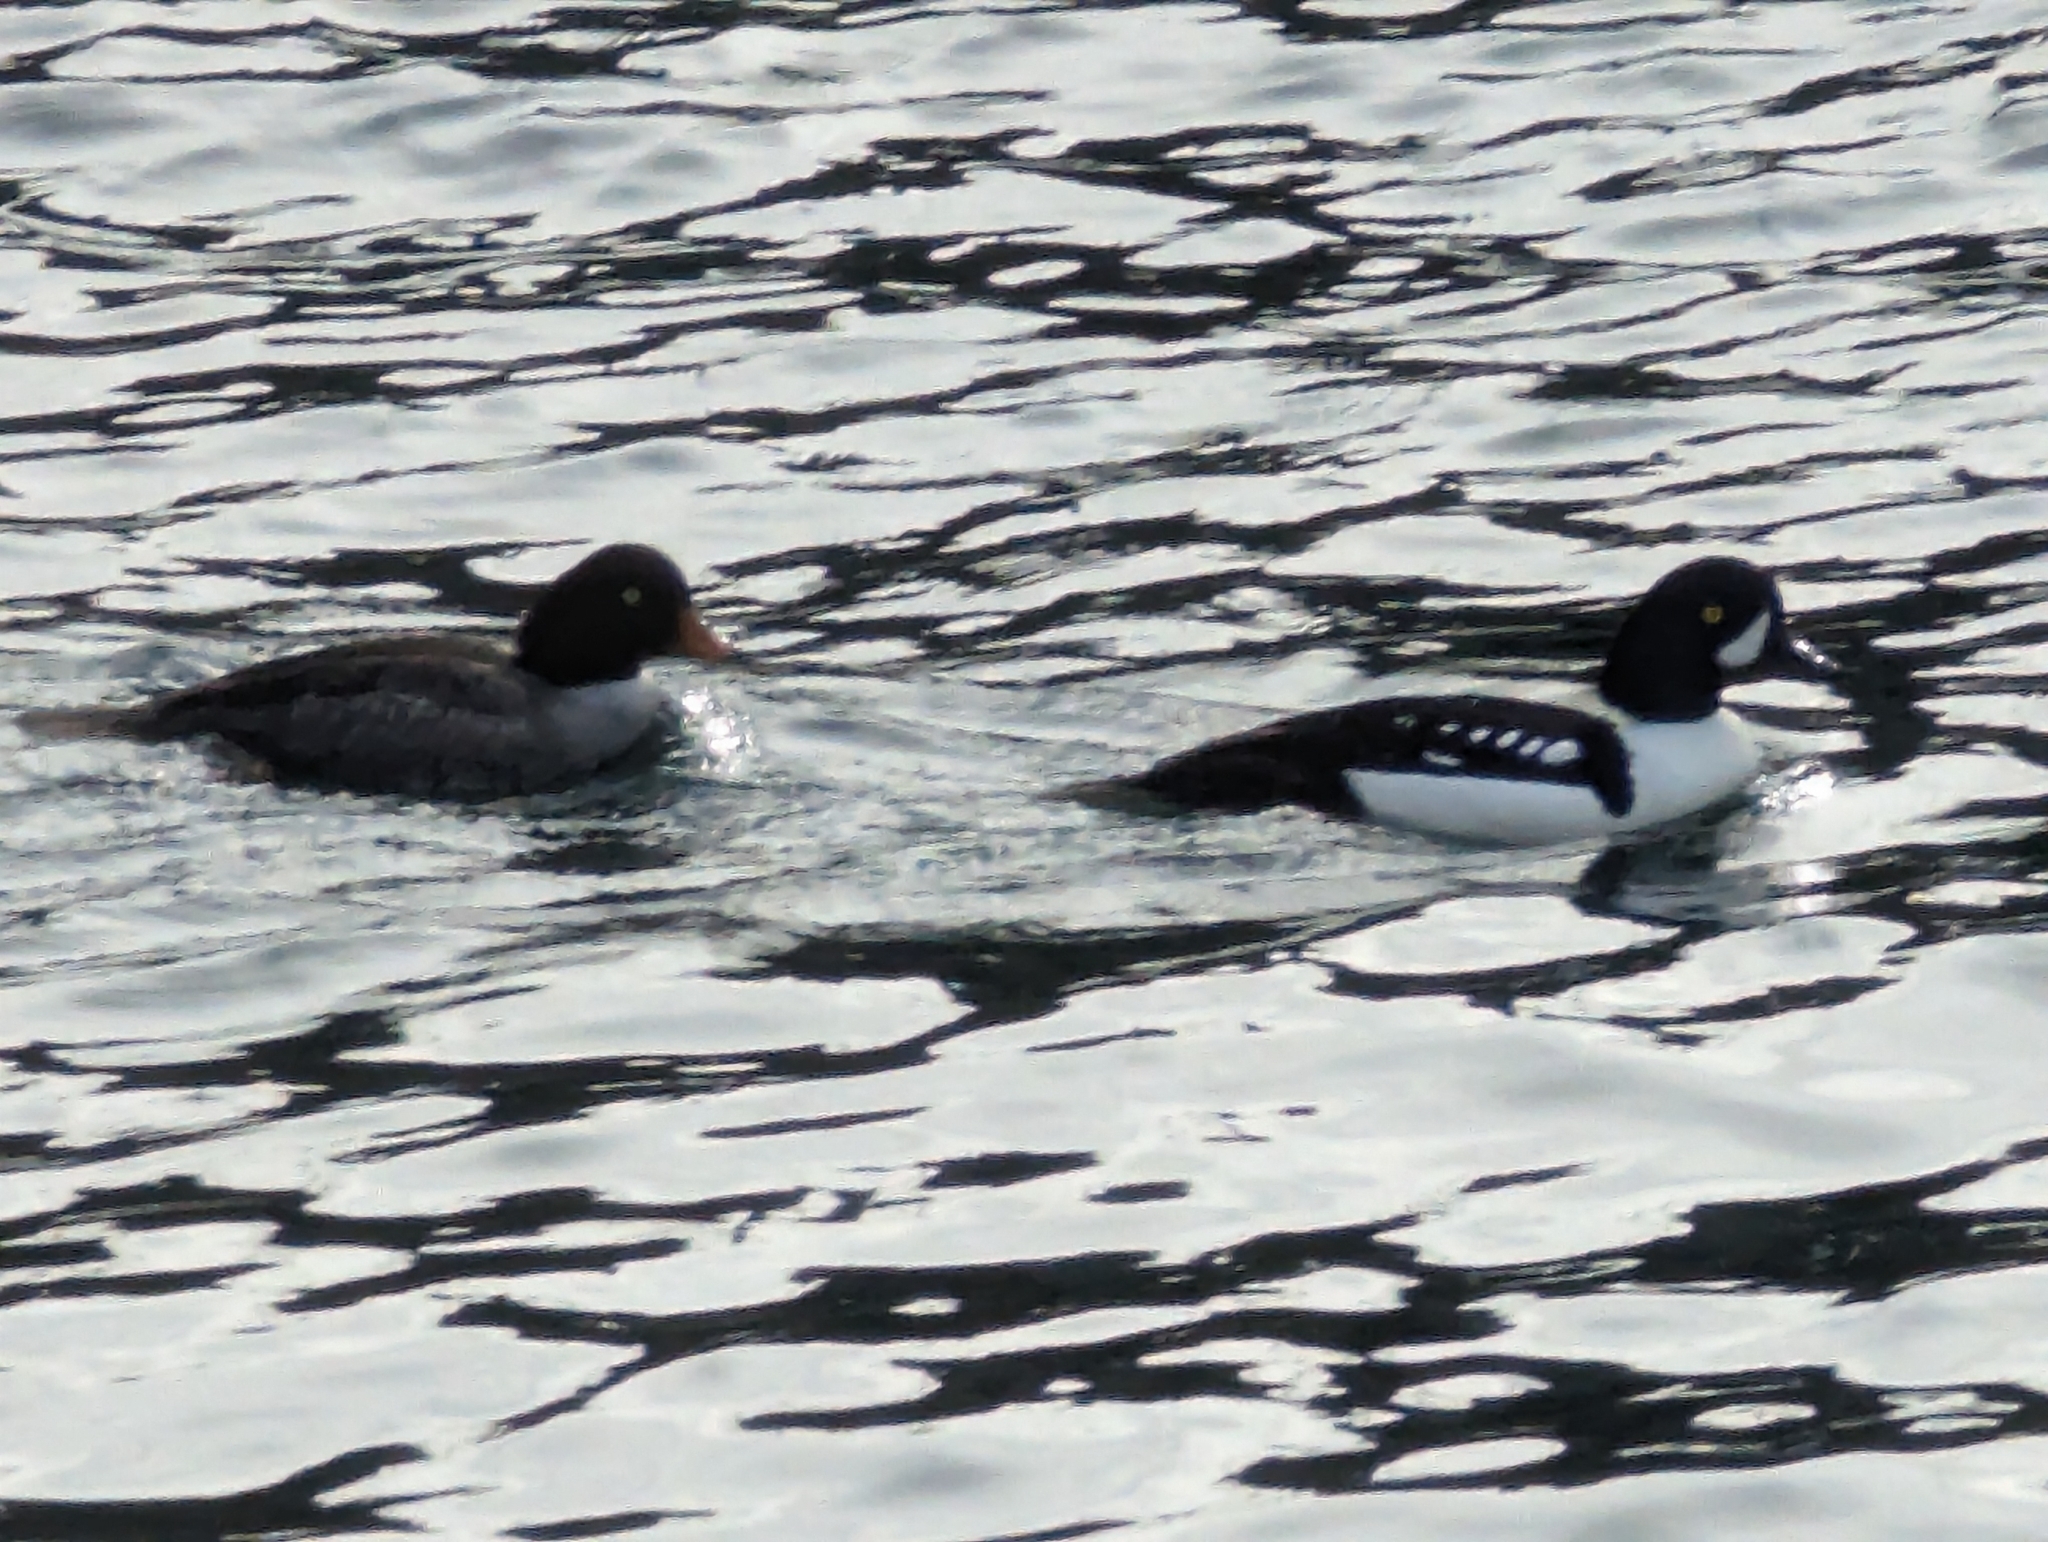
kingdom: Animalia
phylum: Chordata
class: Aves
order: Anseriformes
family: Anatidae
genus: Bucephala
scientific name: Bucephala islandica
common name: Barrow's goldeneye
